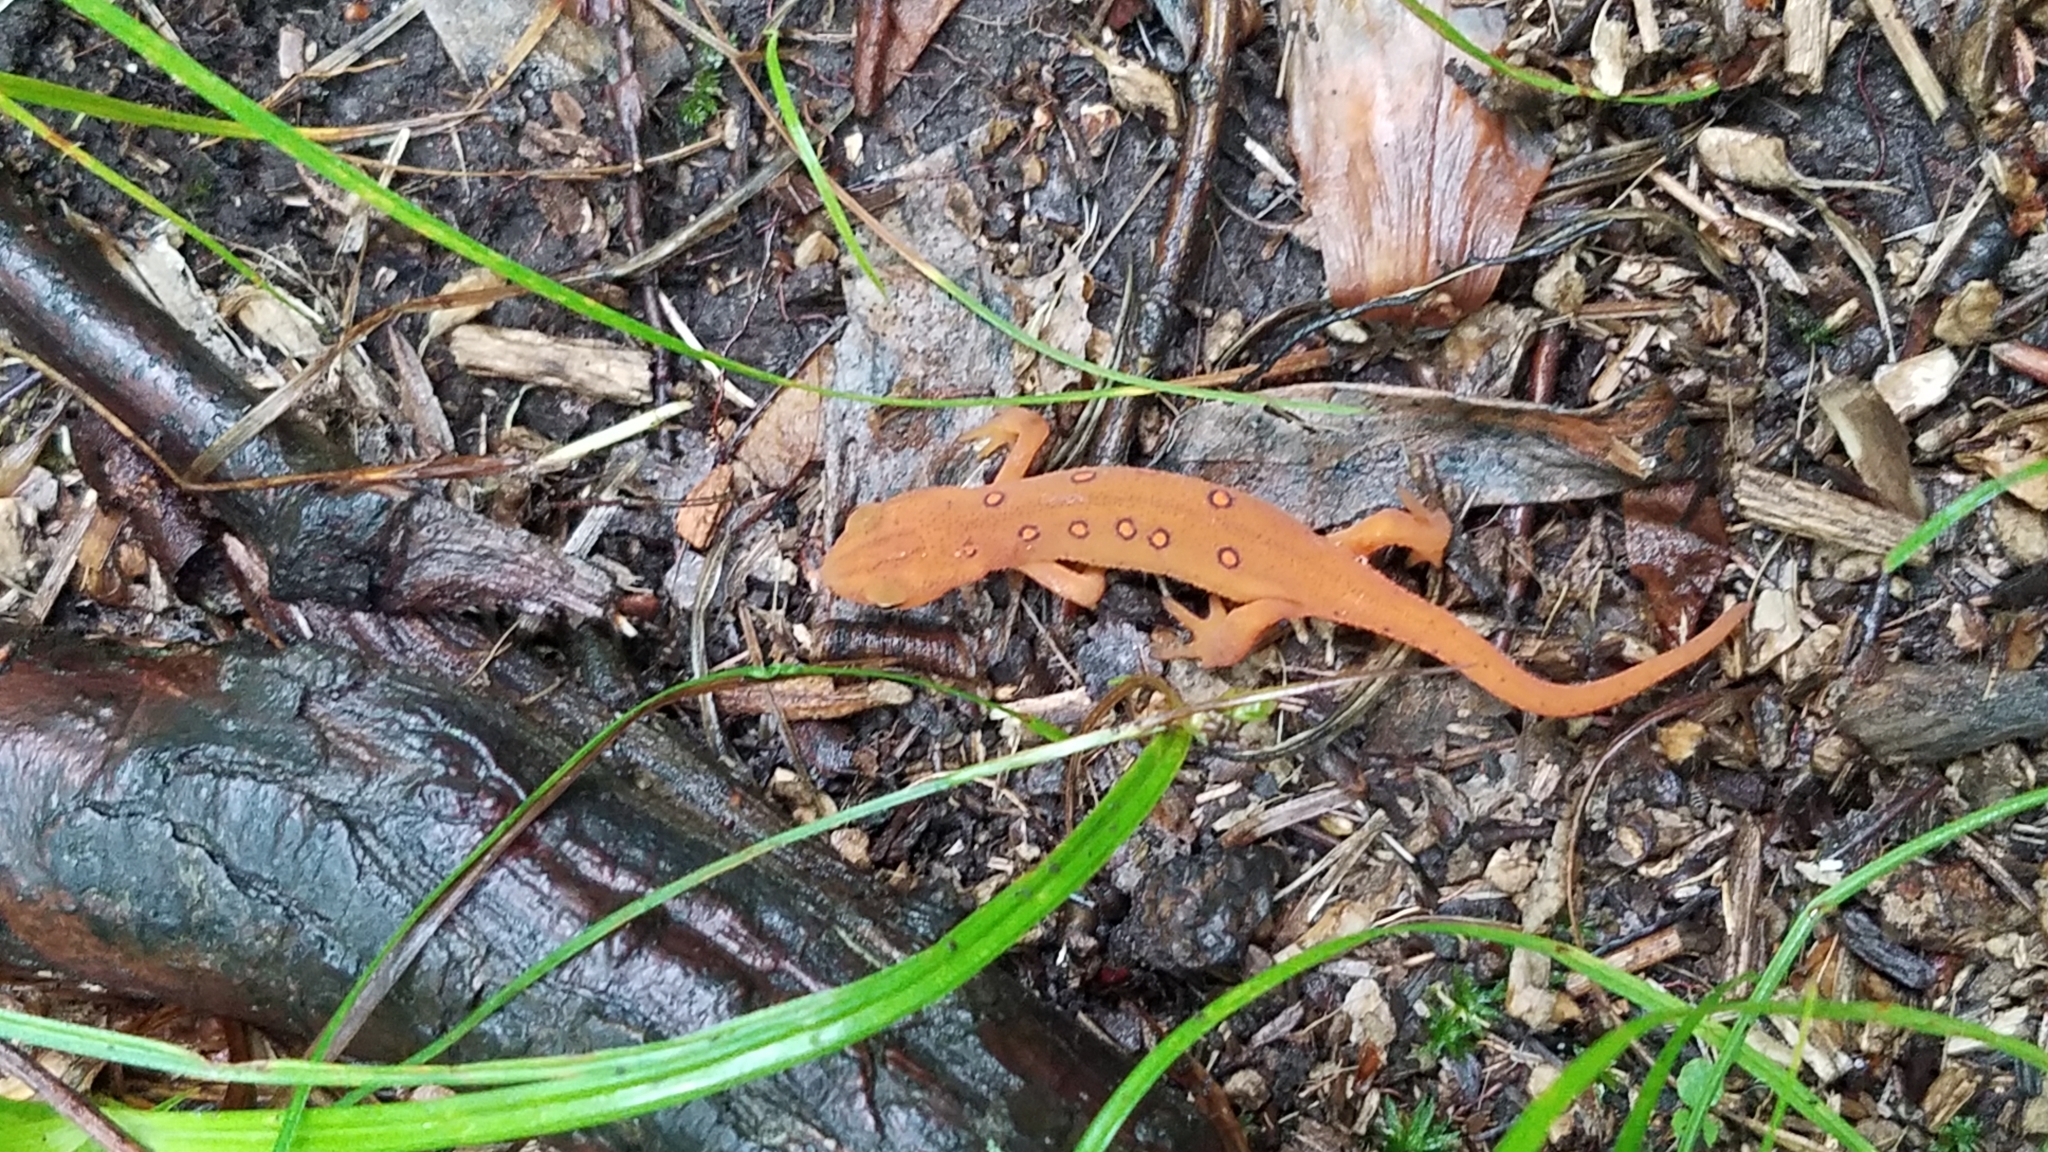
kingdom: Animalia
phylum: Chordata
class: Amphibia
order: Caudata
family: Salamandridae
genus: Notophthalmus
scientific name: Notophthalmus viridescens
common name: Eastern newt
